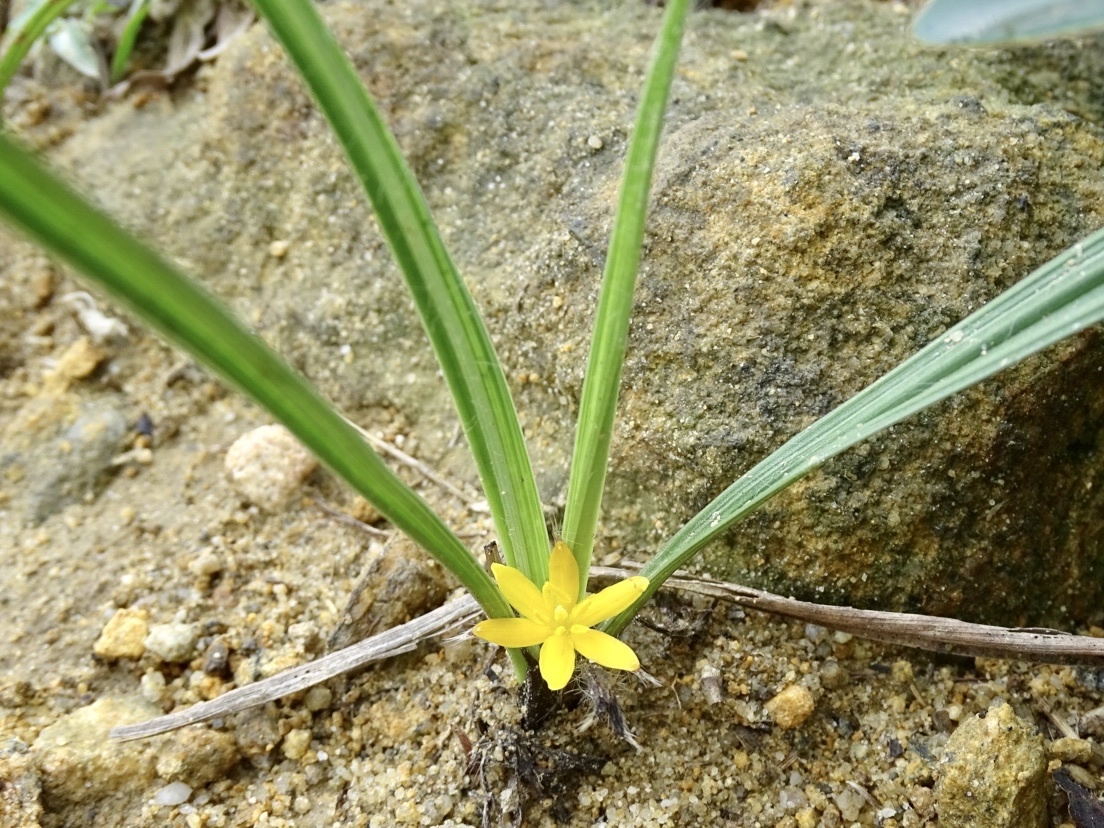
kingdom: Plantae
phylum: Tracheophyta
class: Liliopsida
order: Asparagales
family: Hypoxidaceae
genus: Curculigo
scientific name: Curculigo orchioides
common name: Golden eye-grass
